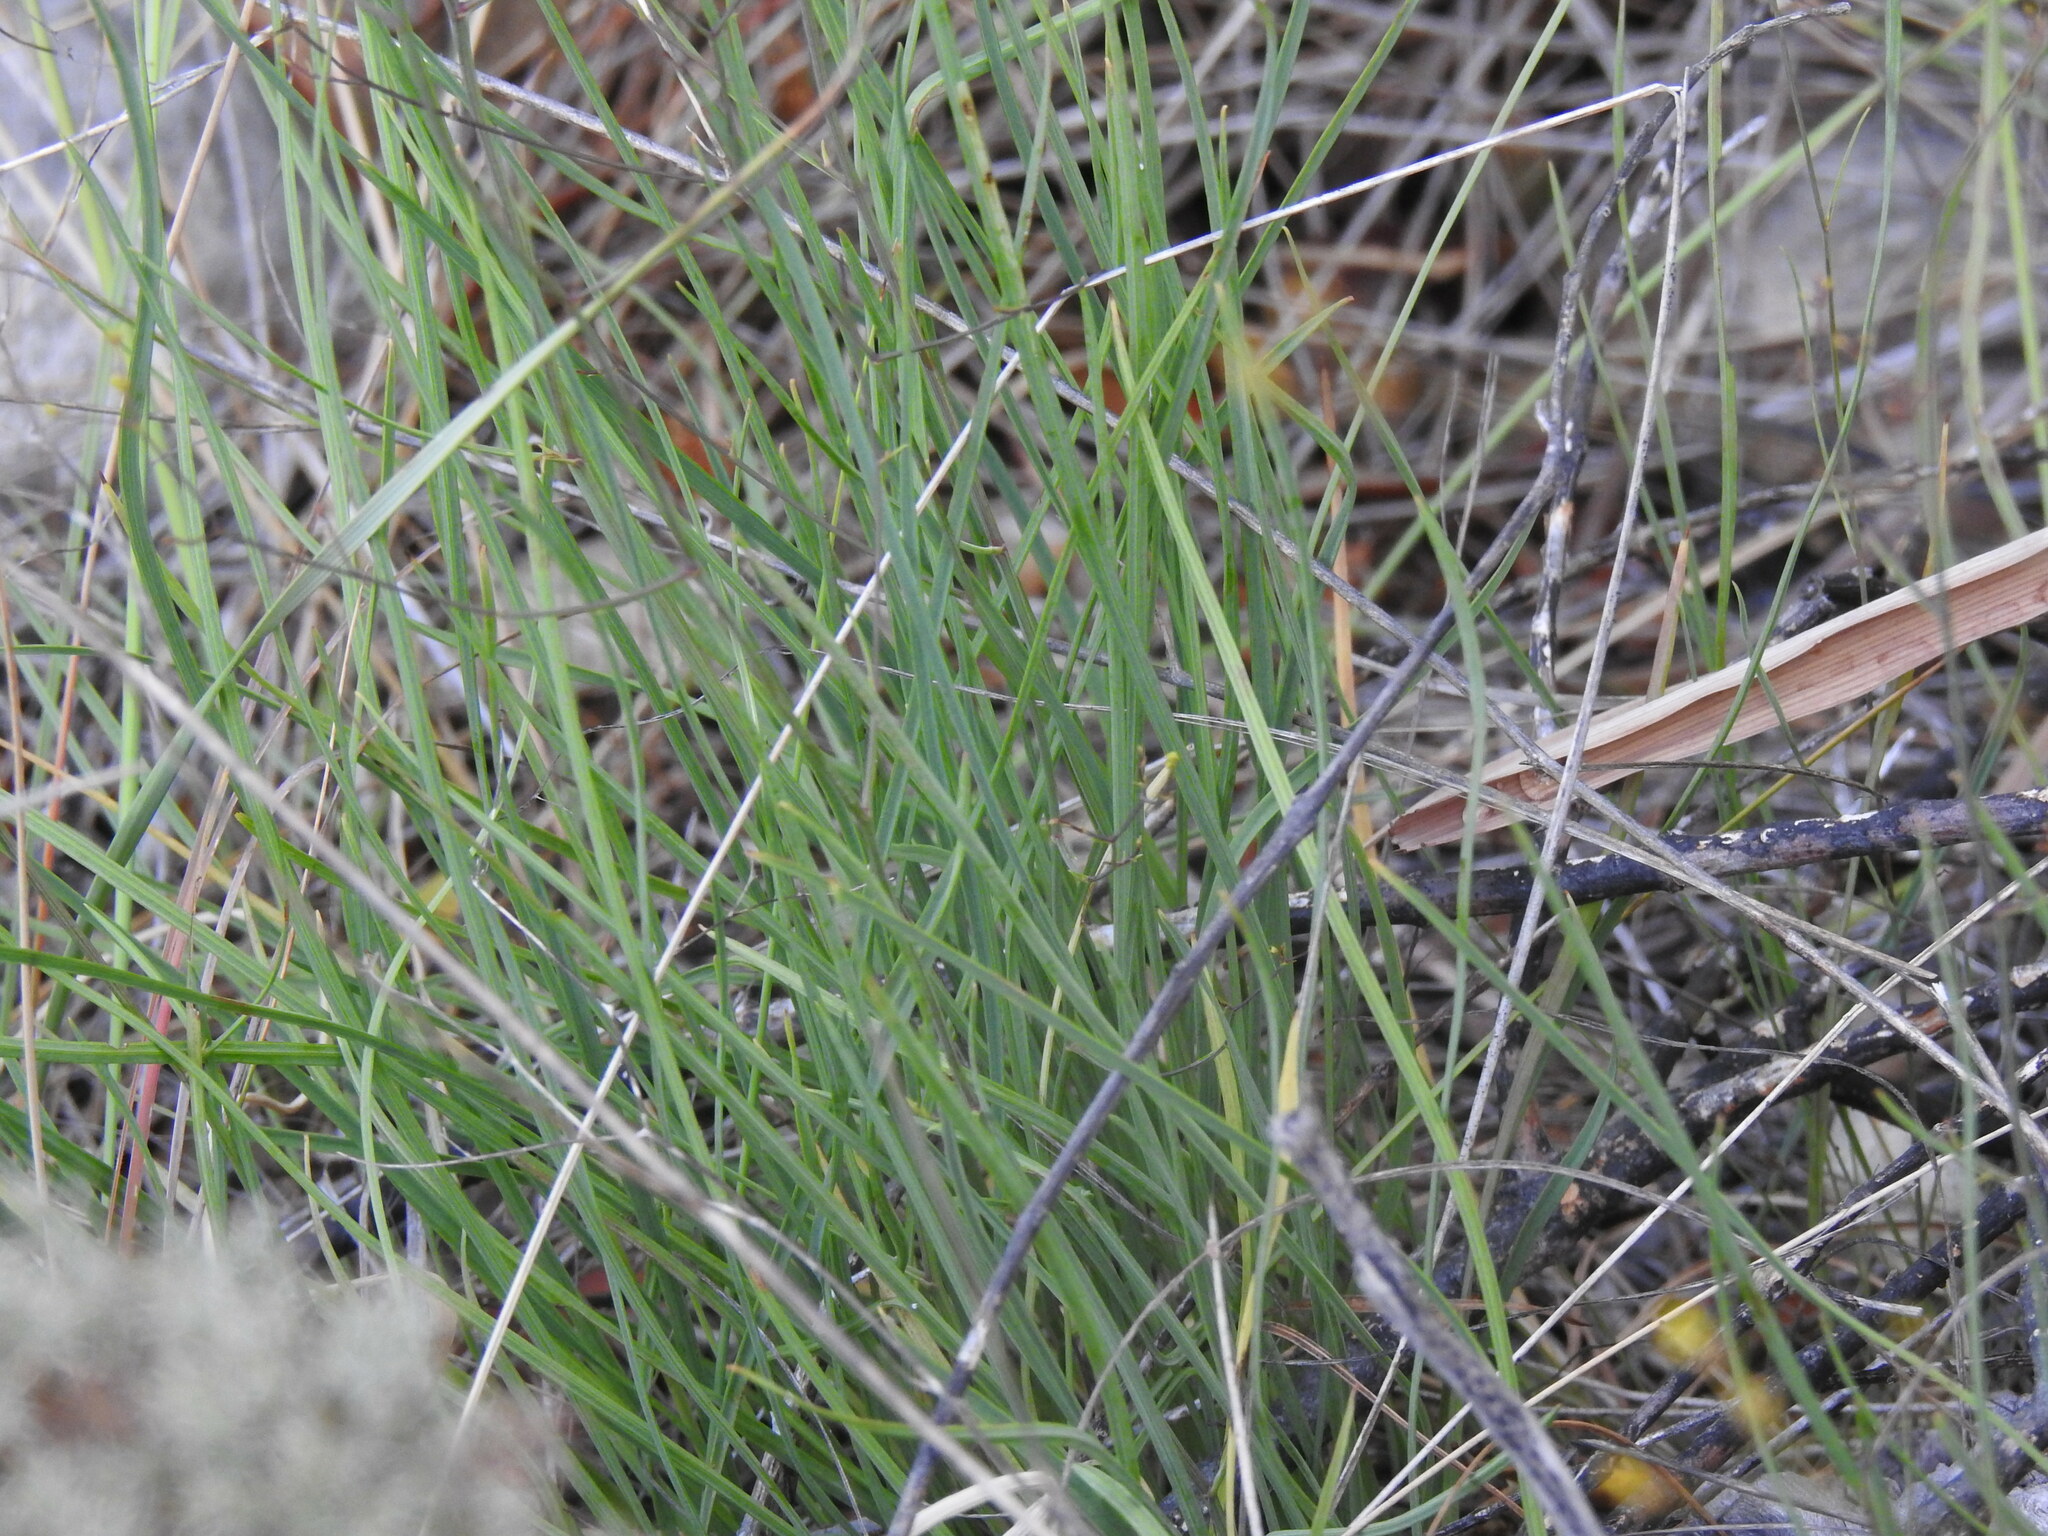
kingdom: Plantae
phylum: Tracheophyta
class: Magnoliopsida
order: Apiales
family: Apiaceae
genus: Bupleurum
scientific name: Bupleurum rigidum
